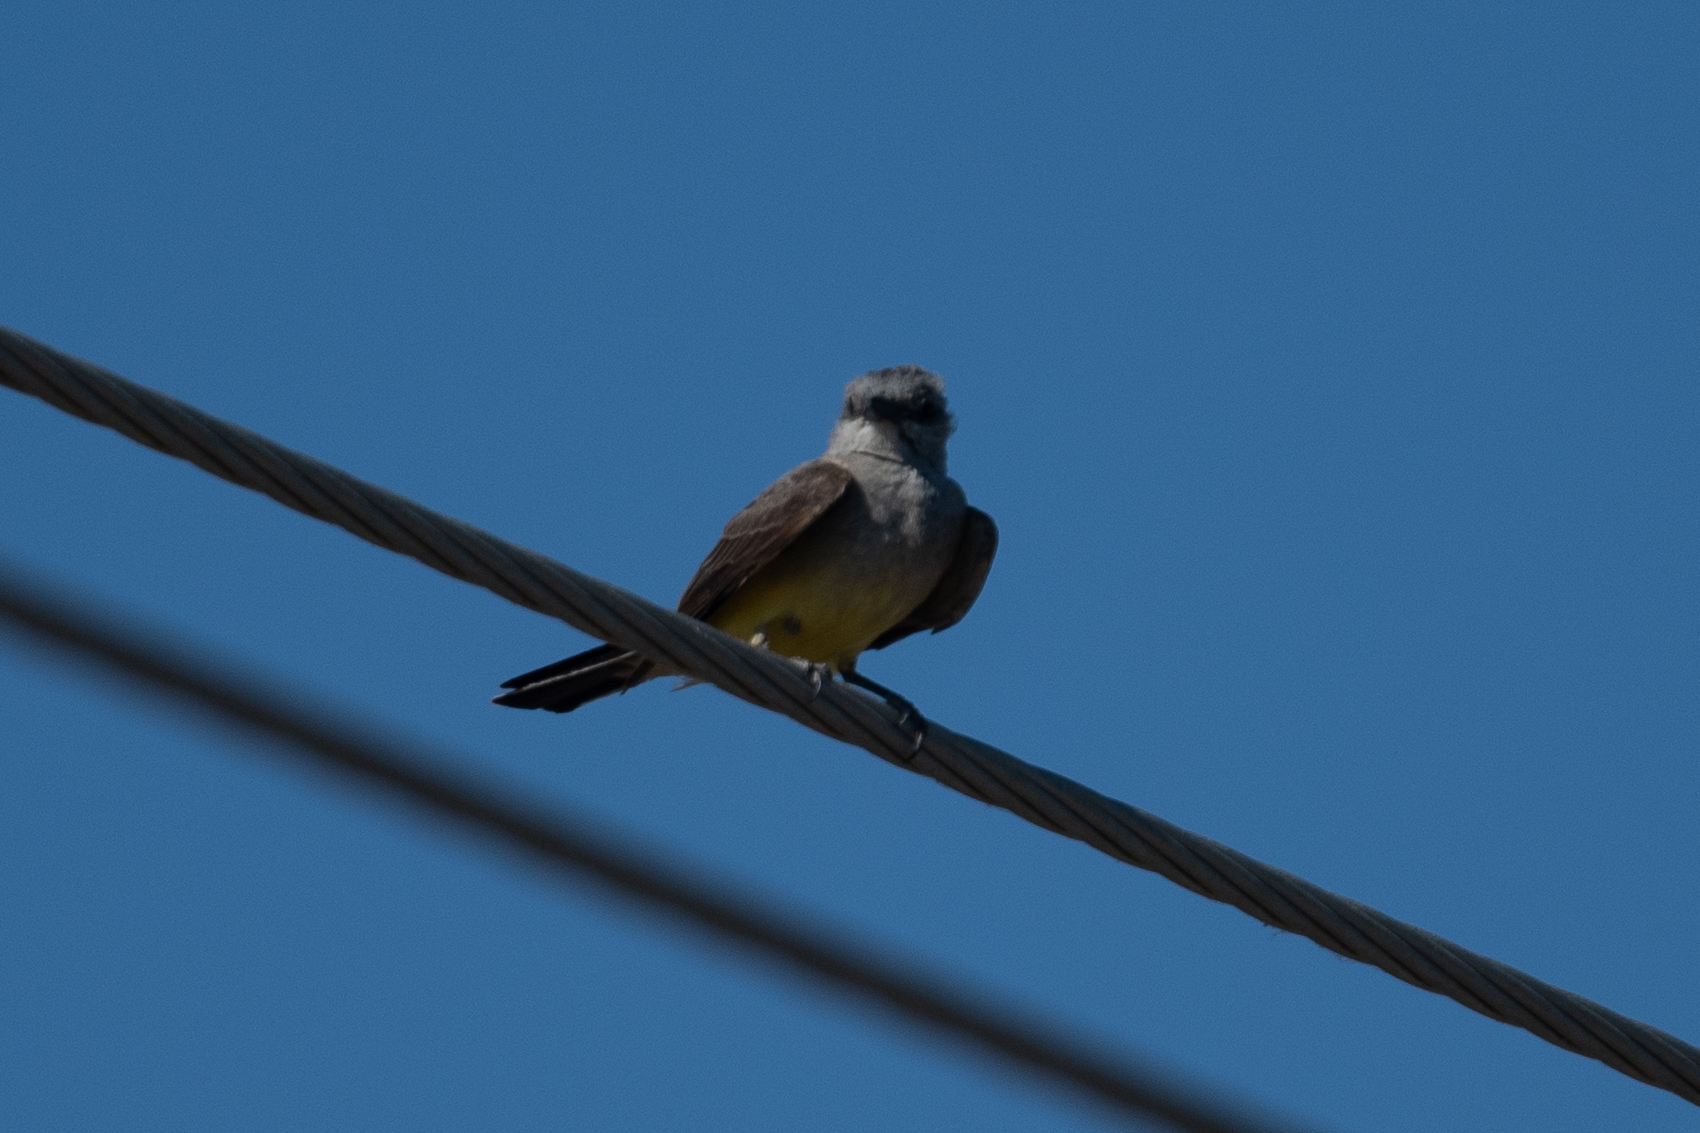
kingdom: Animalia
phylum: Chordata
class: Aves
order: Passeriformes
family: Tyrannidae
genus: Tyrannus
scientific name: Tyrannus verticalis
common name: Western kingbird
